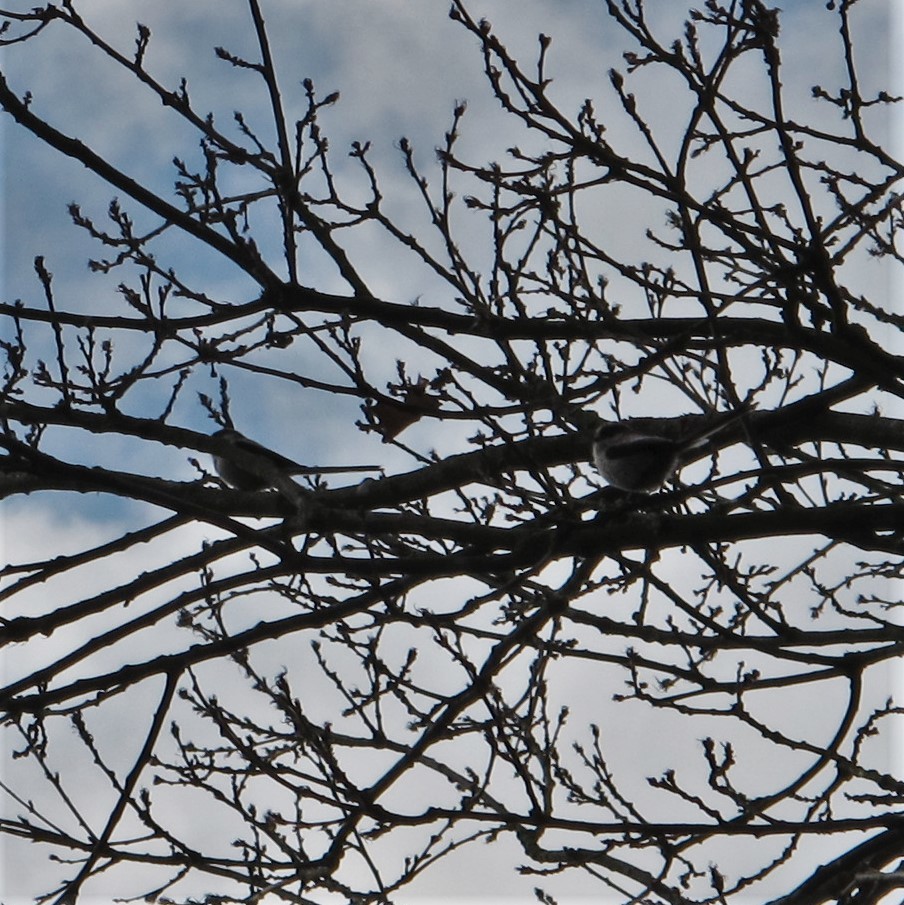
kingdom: Animalia
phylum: Chordata
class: Aves
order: Passeriformes
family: Aegithalidae
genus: Aegithalos
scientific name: Aegithalos caudatus
